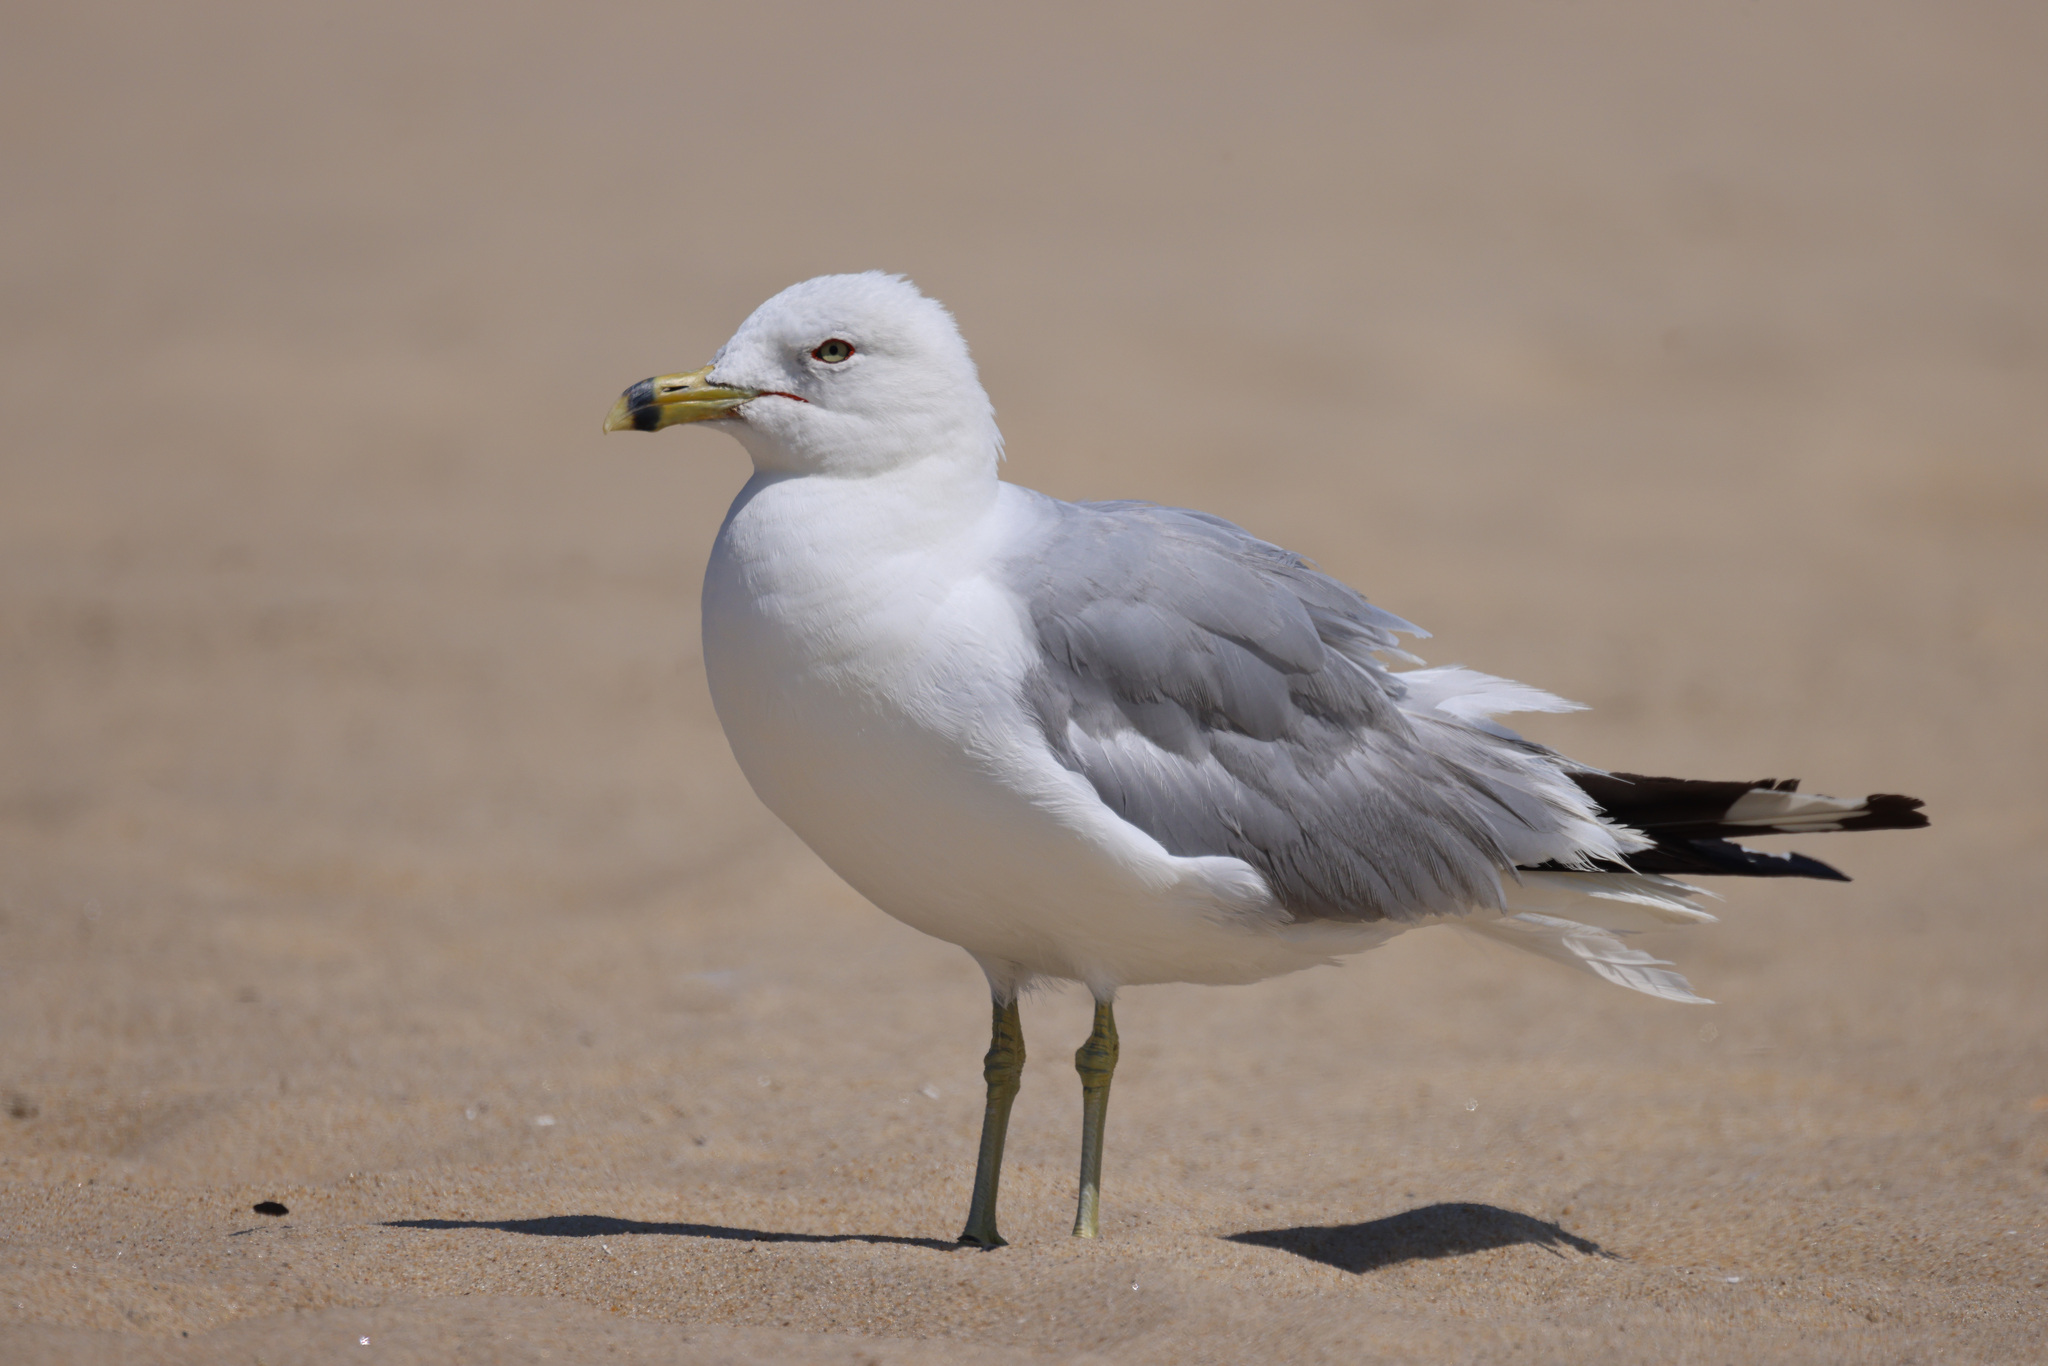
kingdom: Animalia
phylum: Chordata
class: Aves
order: Charadriiformes
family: Laridae
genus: Larus
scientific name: Larus delawarensis
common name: Ring-billed gull
